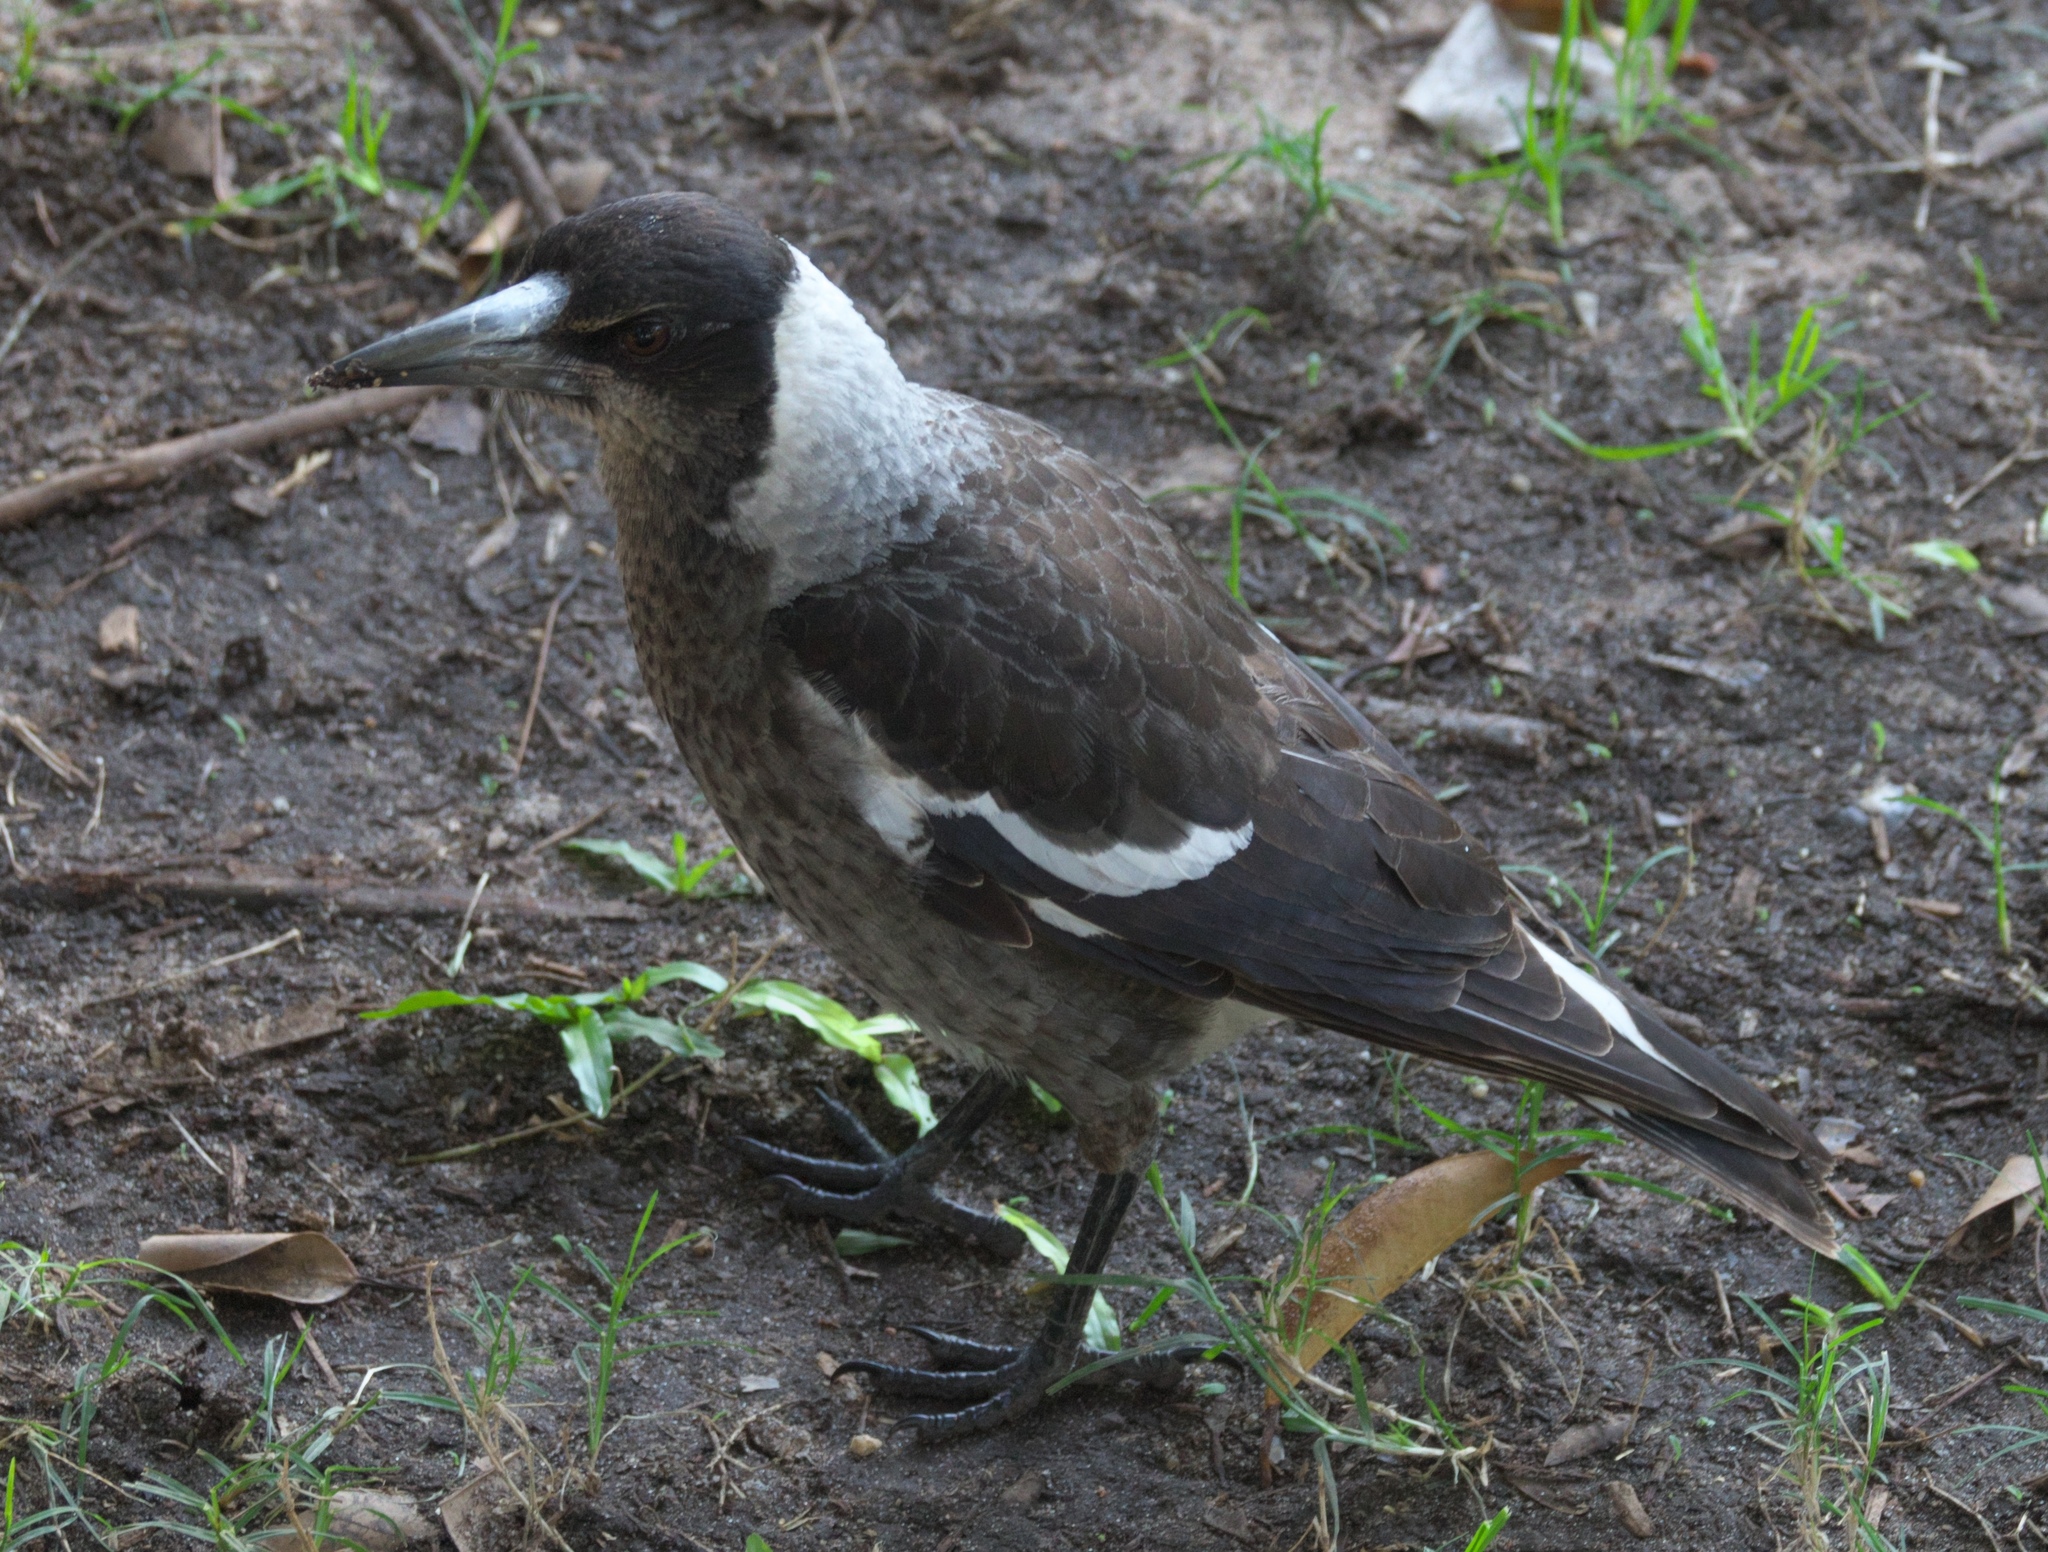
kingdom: Animalia
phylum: Chordata
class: Aves
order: Passeriformes
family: Cracticidae
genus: Gymnorhina
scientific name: Gymnorhina tibicen
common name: Australian magpie
